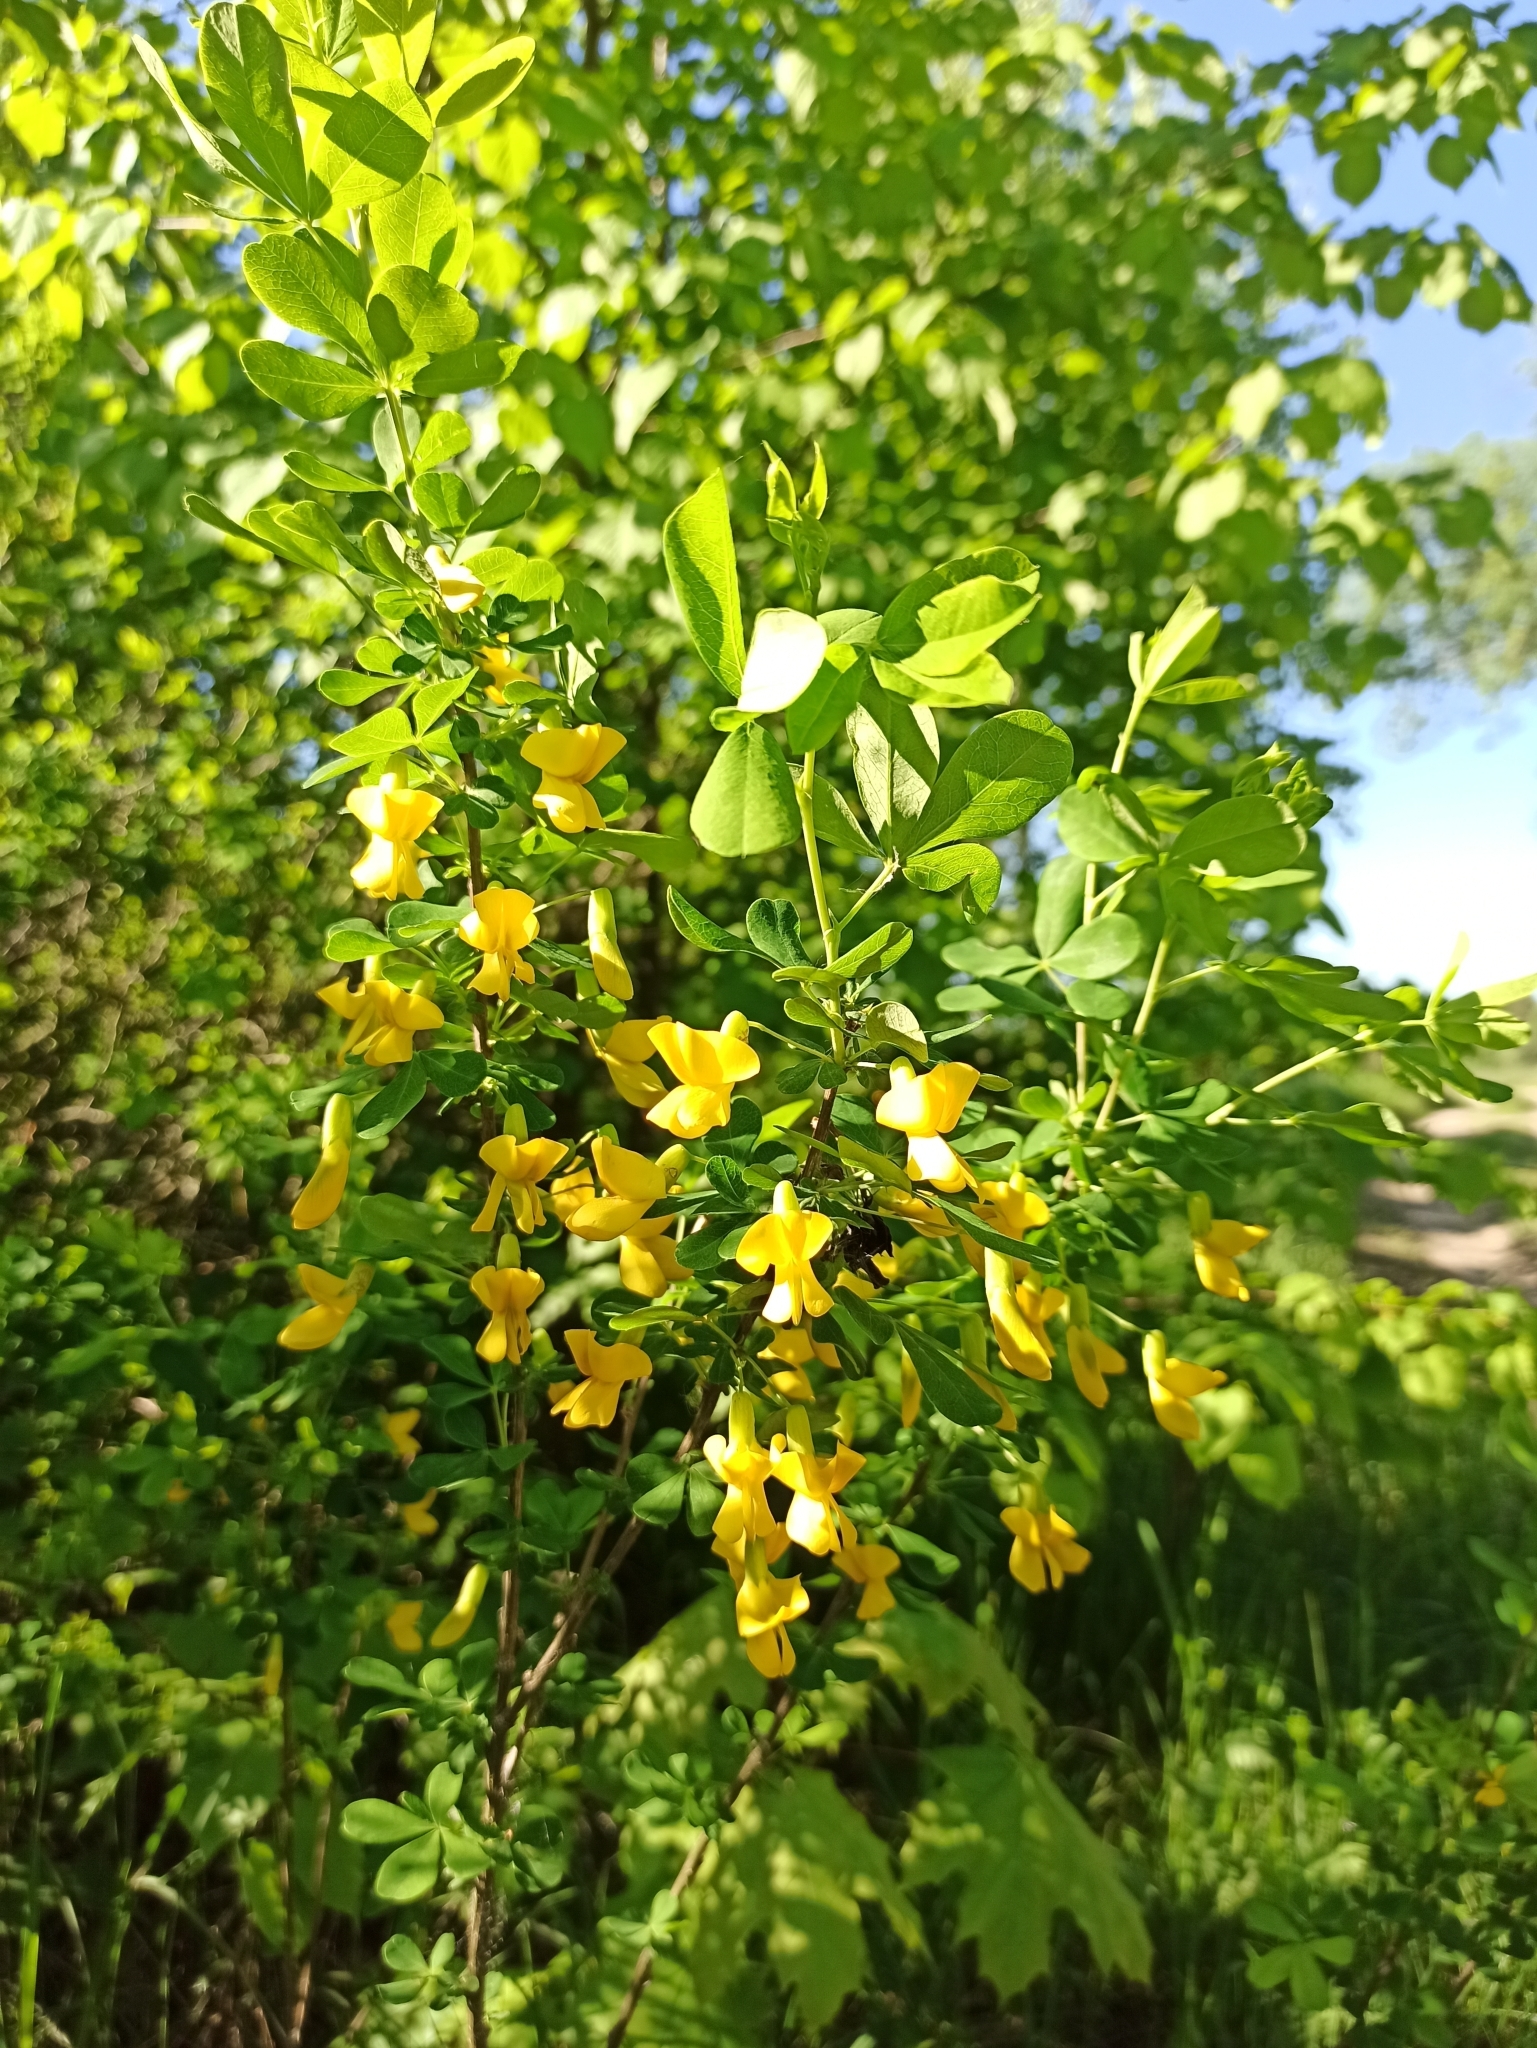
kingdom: Plantae
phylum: Tracheophyta
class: Magnoliopsida
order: Fabales
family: Fabaceae
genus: Caragana
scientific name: Caragana frutex
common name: Russian peashrub
